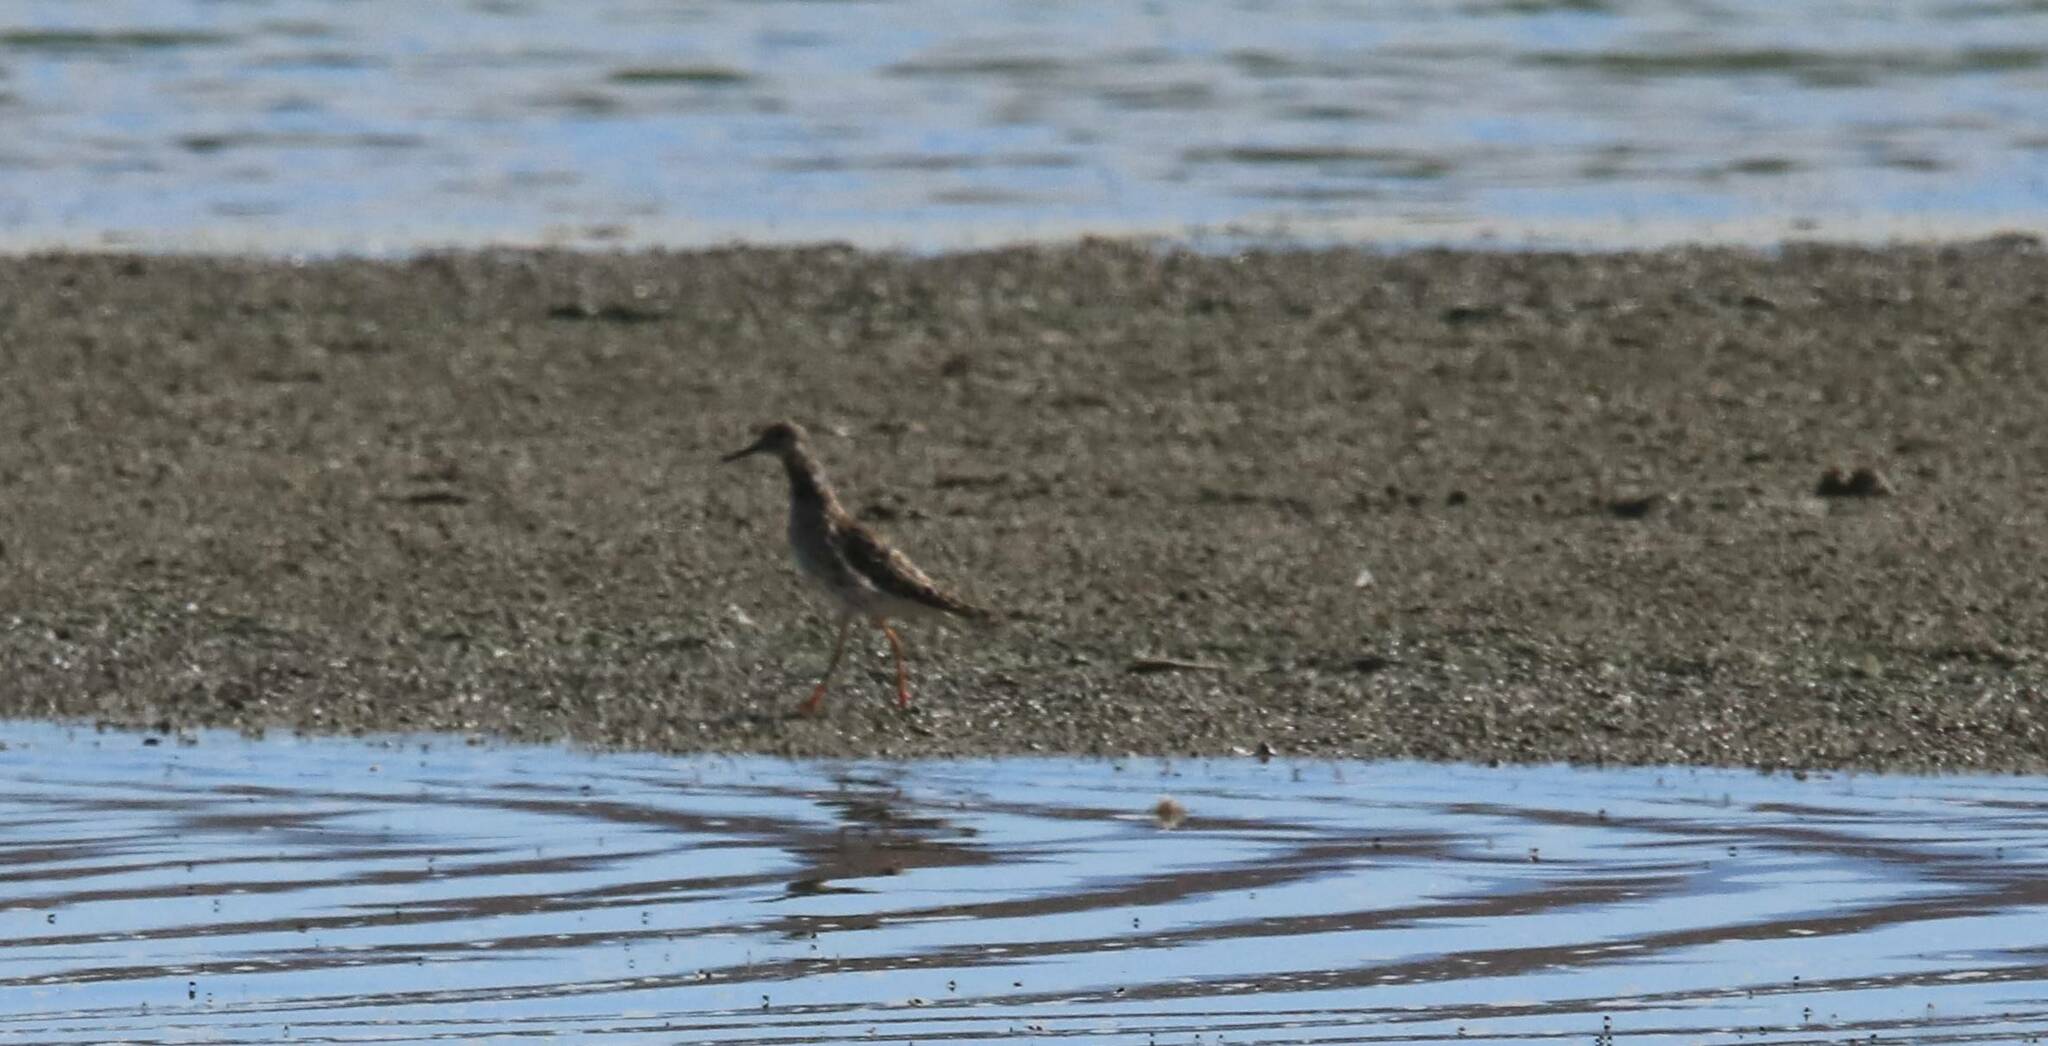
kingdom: Animalia
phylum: Chordata
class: Aves
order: Charadriiformes
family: Scolopacidae
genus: Calidris
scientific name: Calidris pugnax
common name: Ruff
